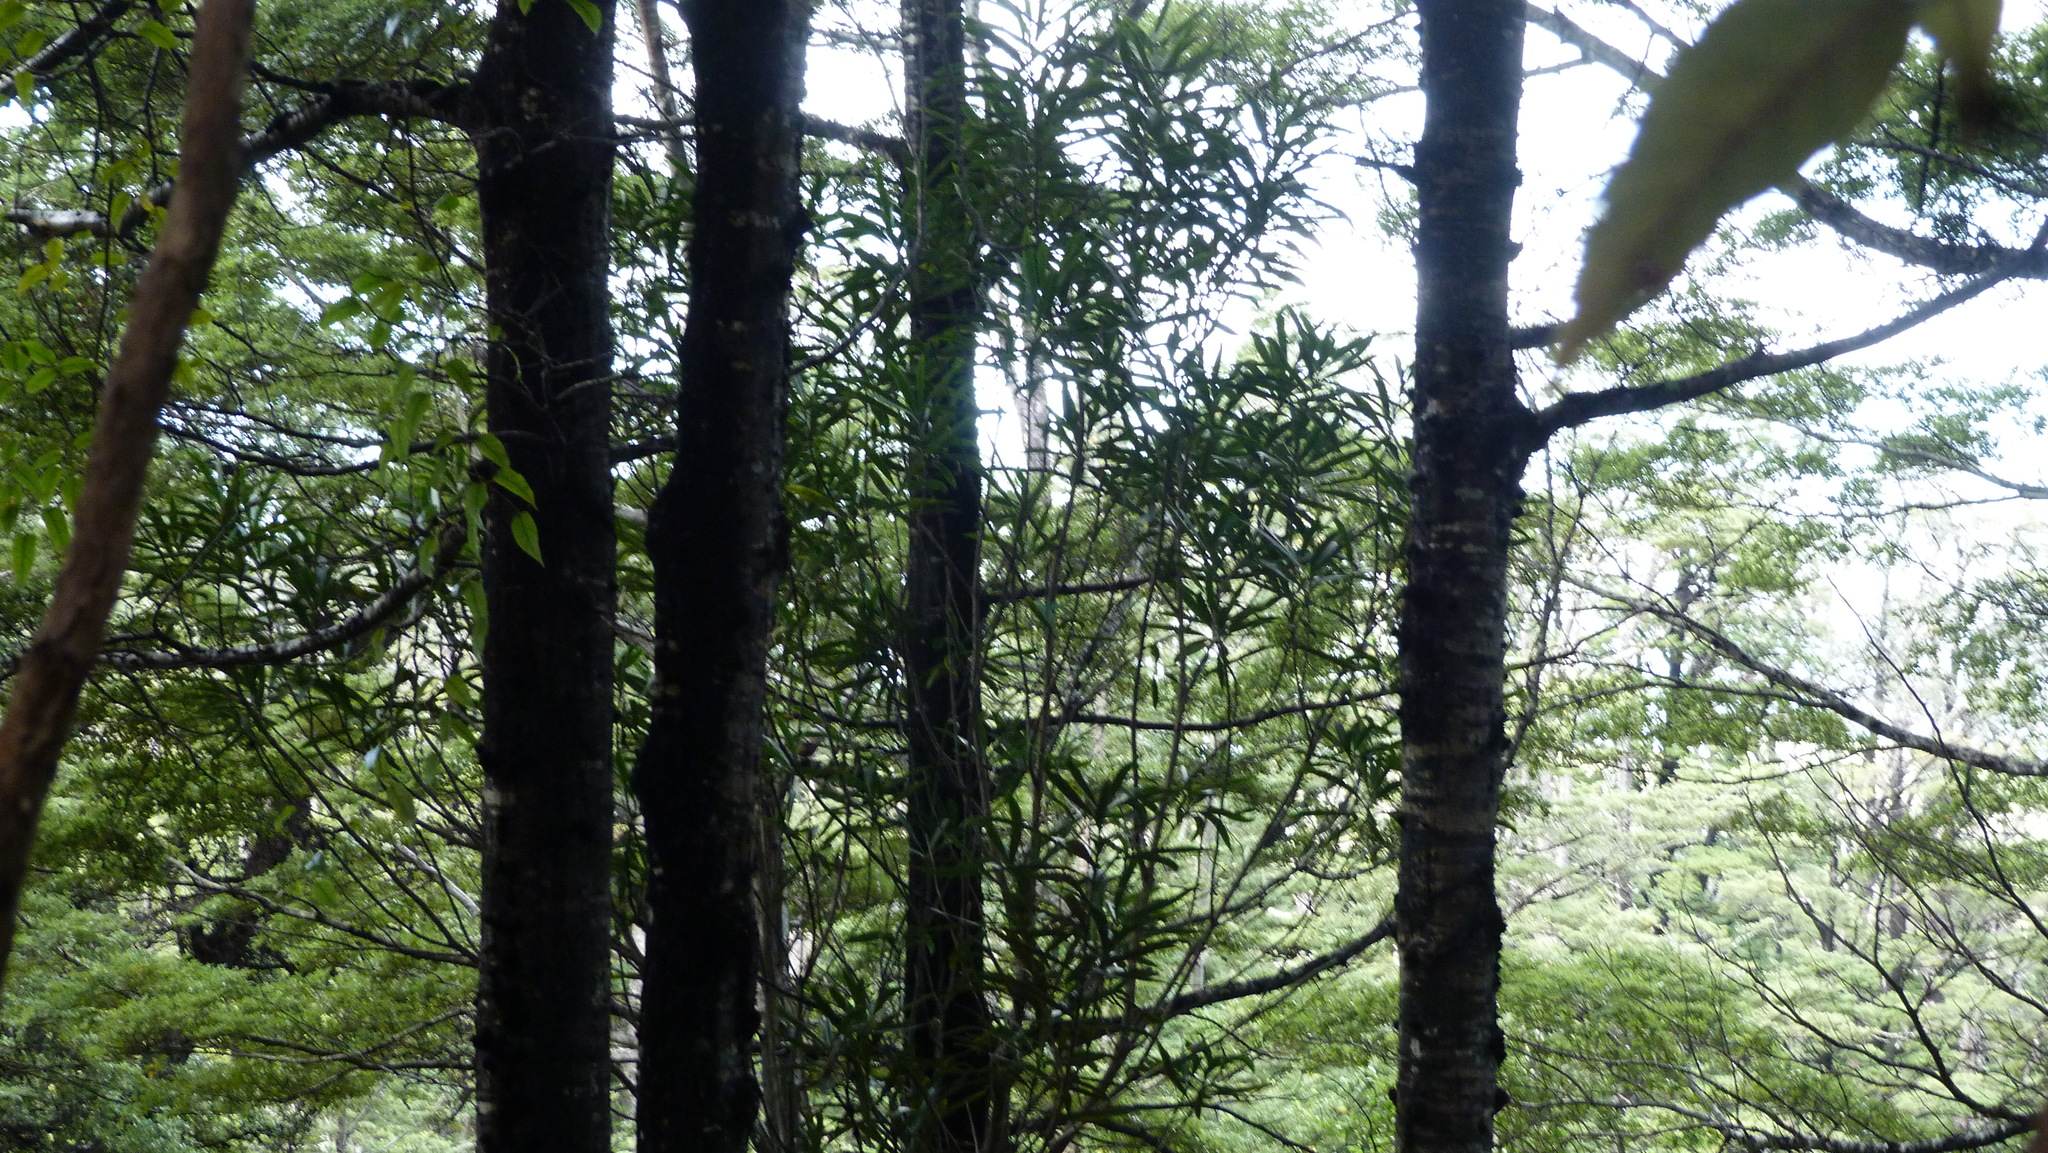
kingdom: Plantae
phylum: Tracheophyta
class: Magnoliopsida
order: Apiales
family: Araliaceae
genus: Pseudopanax
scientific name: Pseudopanax crassifolius
